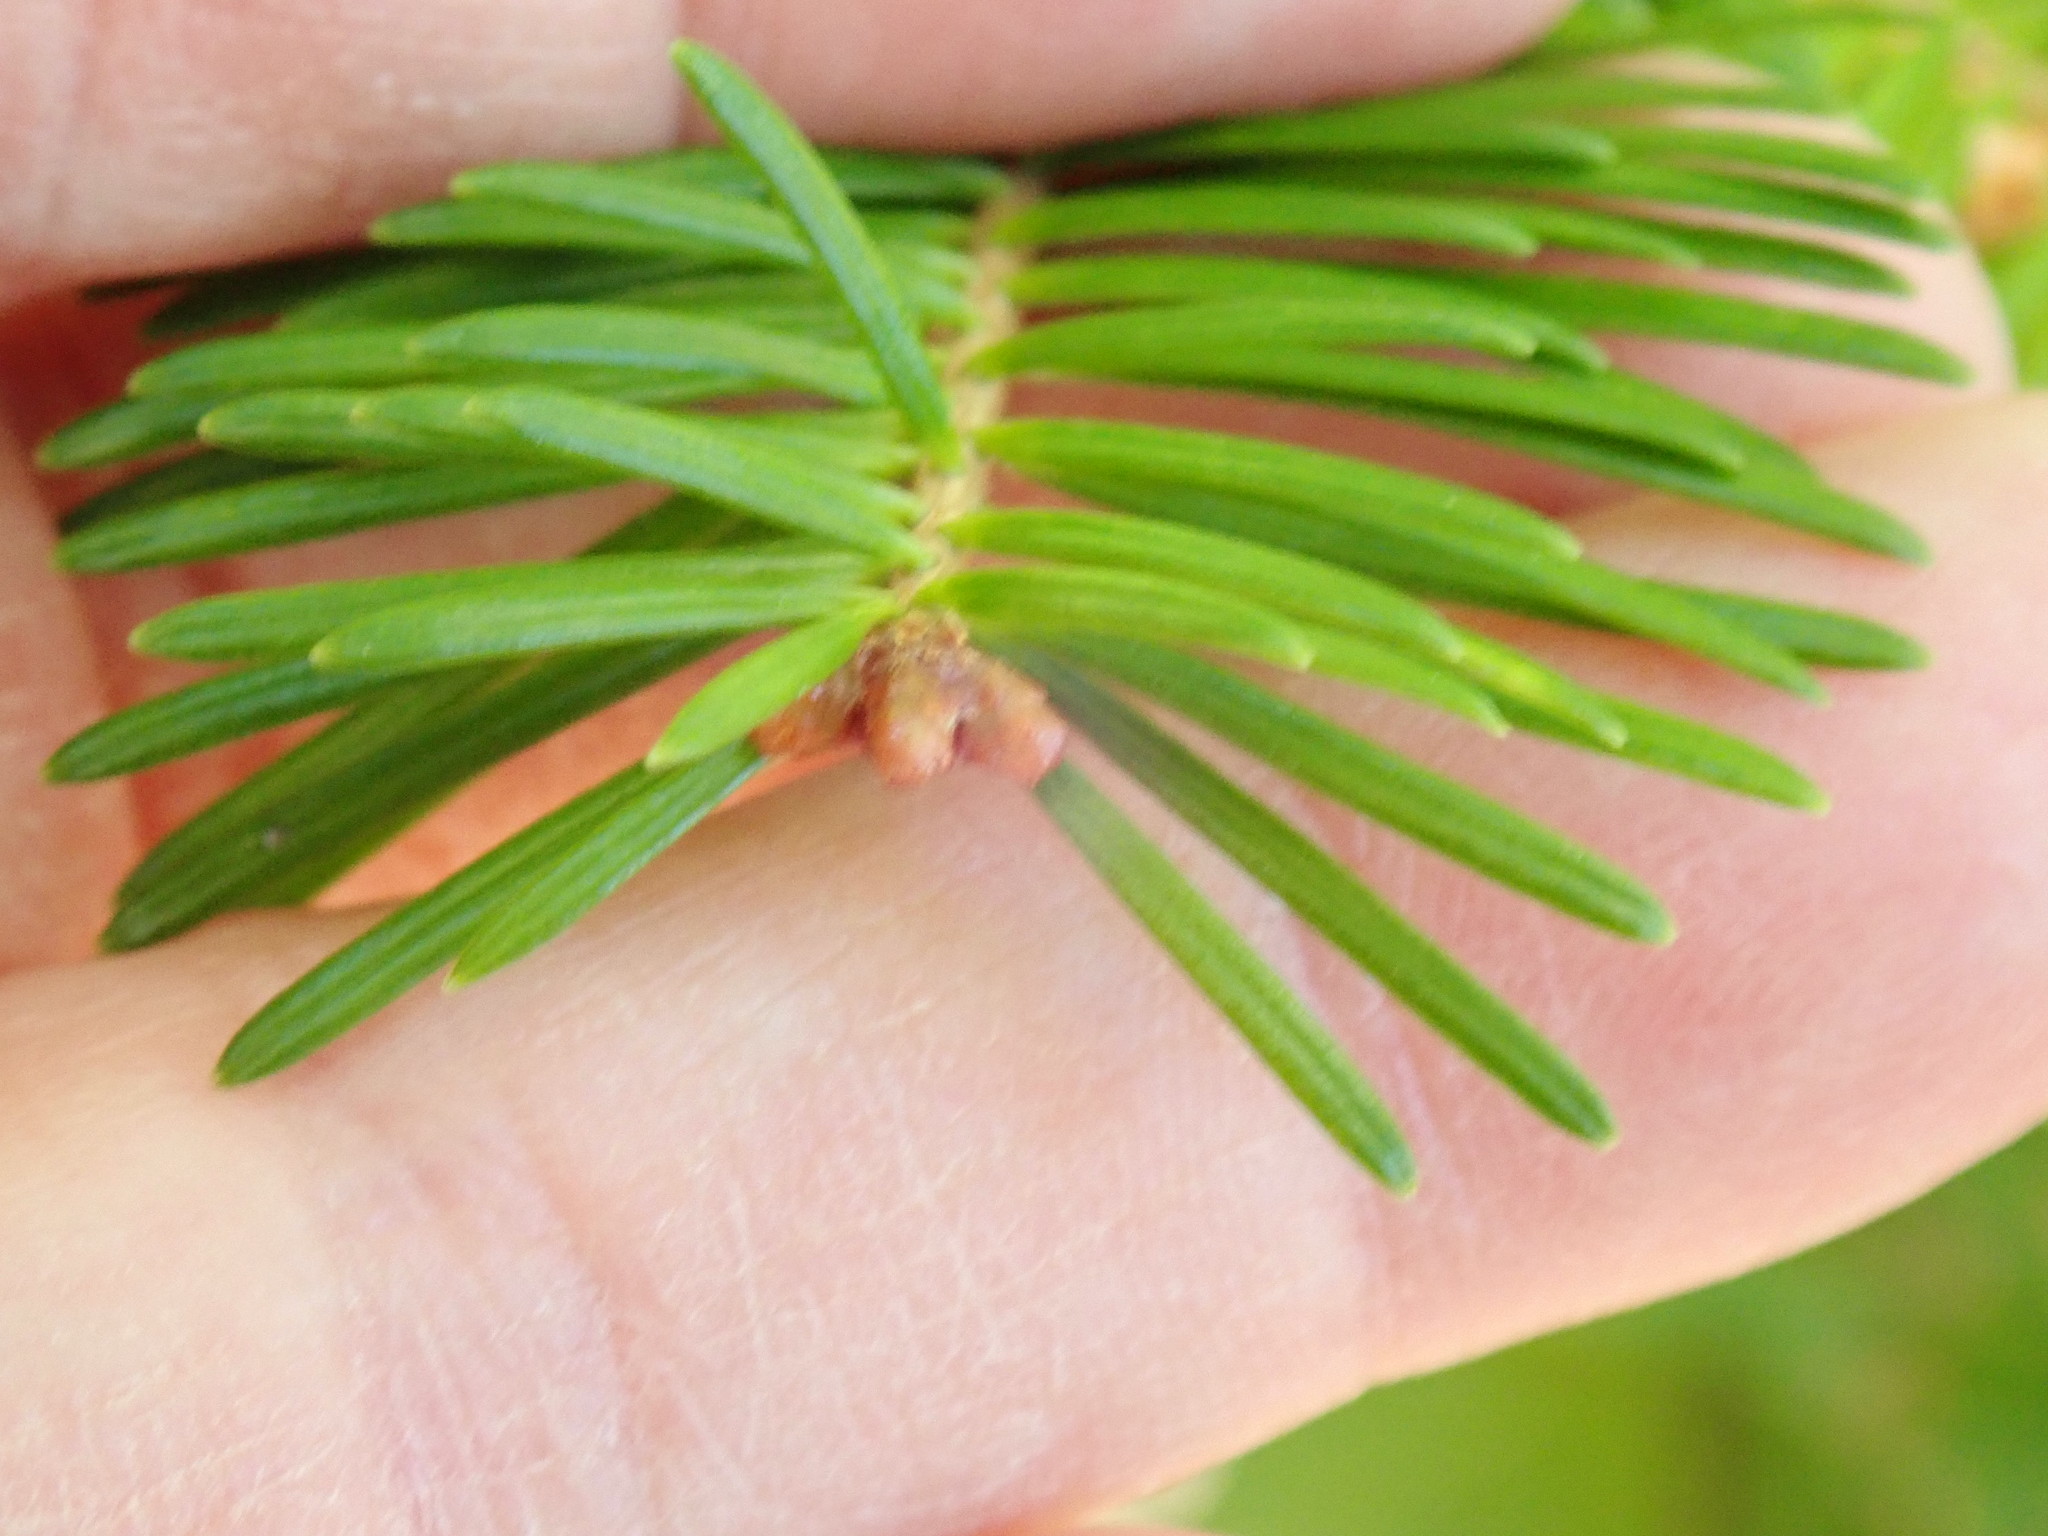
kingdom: Plantae
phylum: Tracheophyta
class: Pinopsida
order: Pinales
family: Pinaceae
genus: Abies
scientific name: Abies balsamea
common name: Balsam fir
